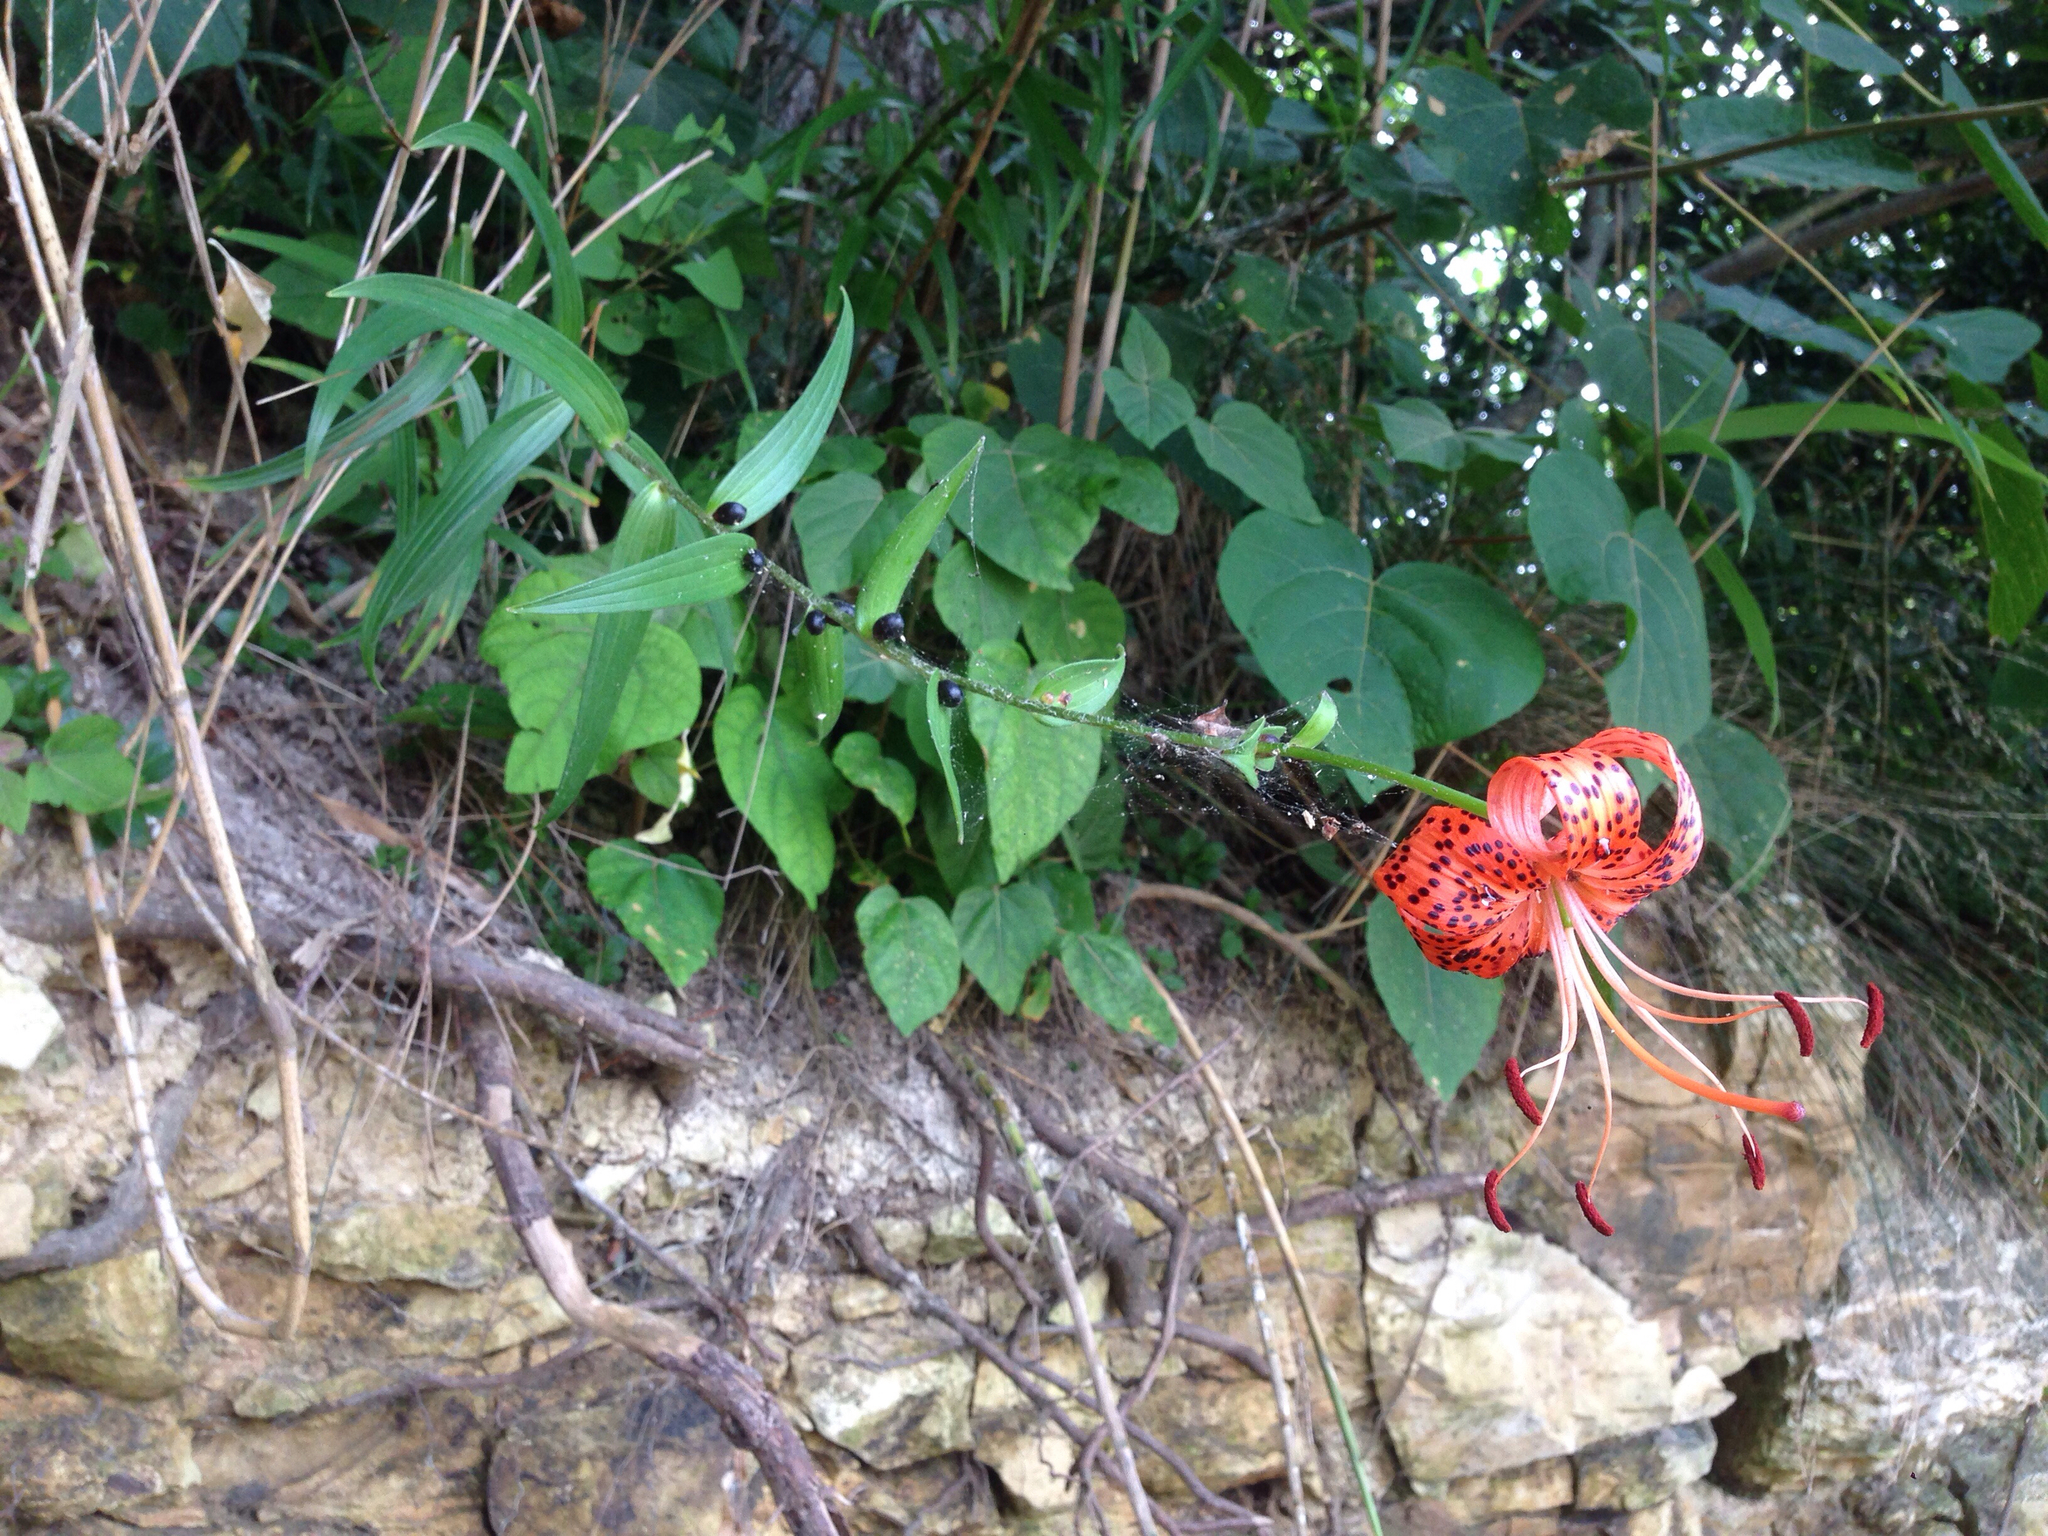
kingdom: Plantae
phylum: Tracheophyta
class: Liliopsida
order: Liliales
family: Liliaceae
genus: Lilium
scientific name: Lilium lancifolium
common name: Tiger lily
